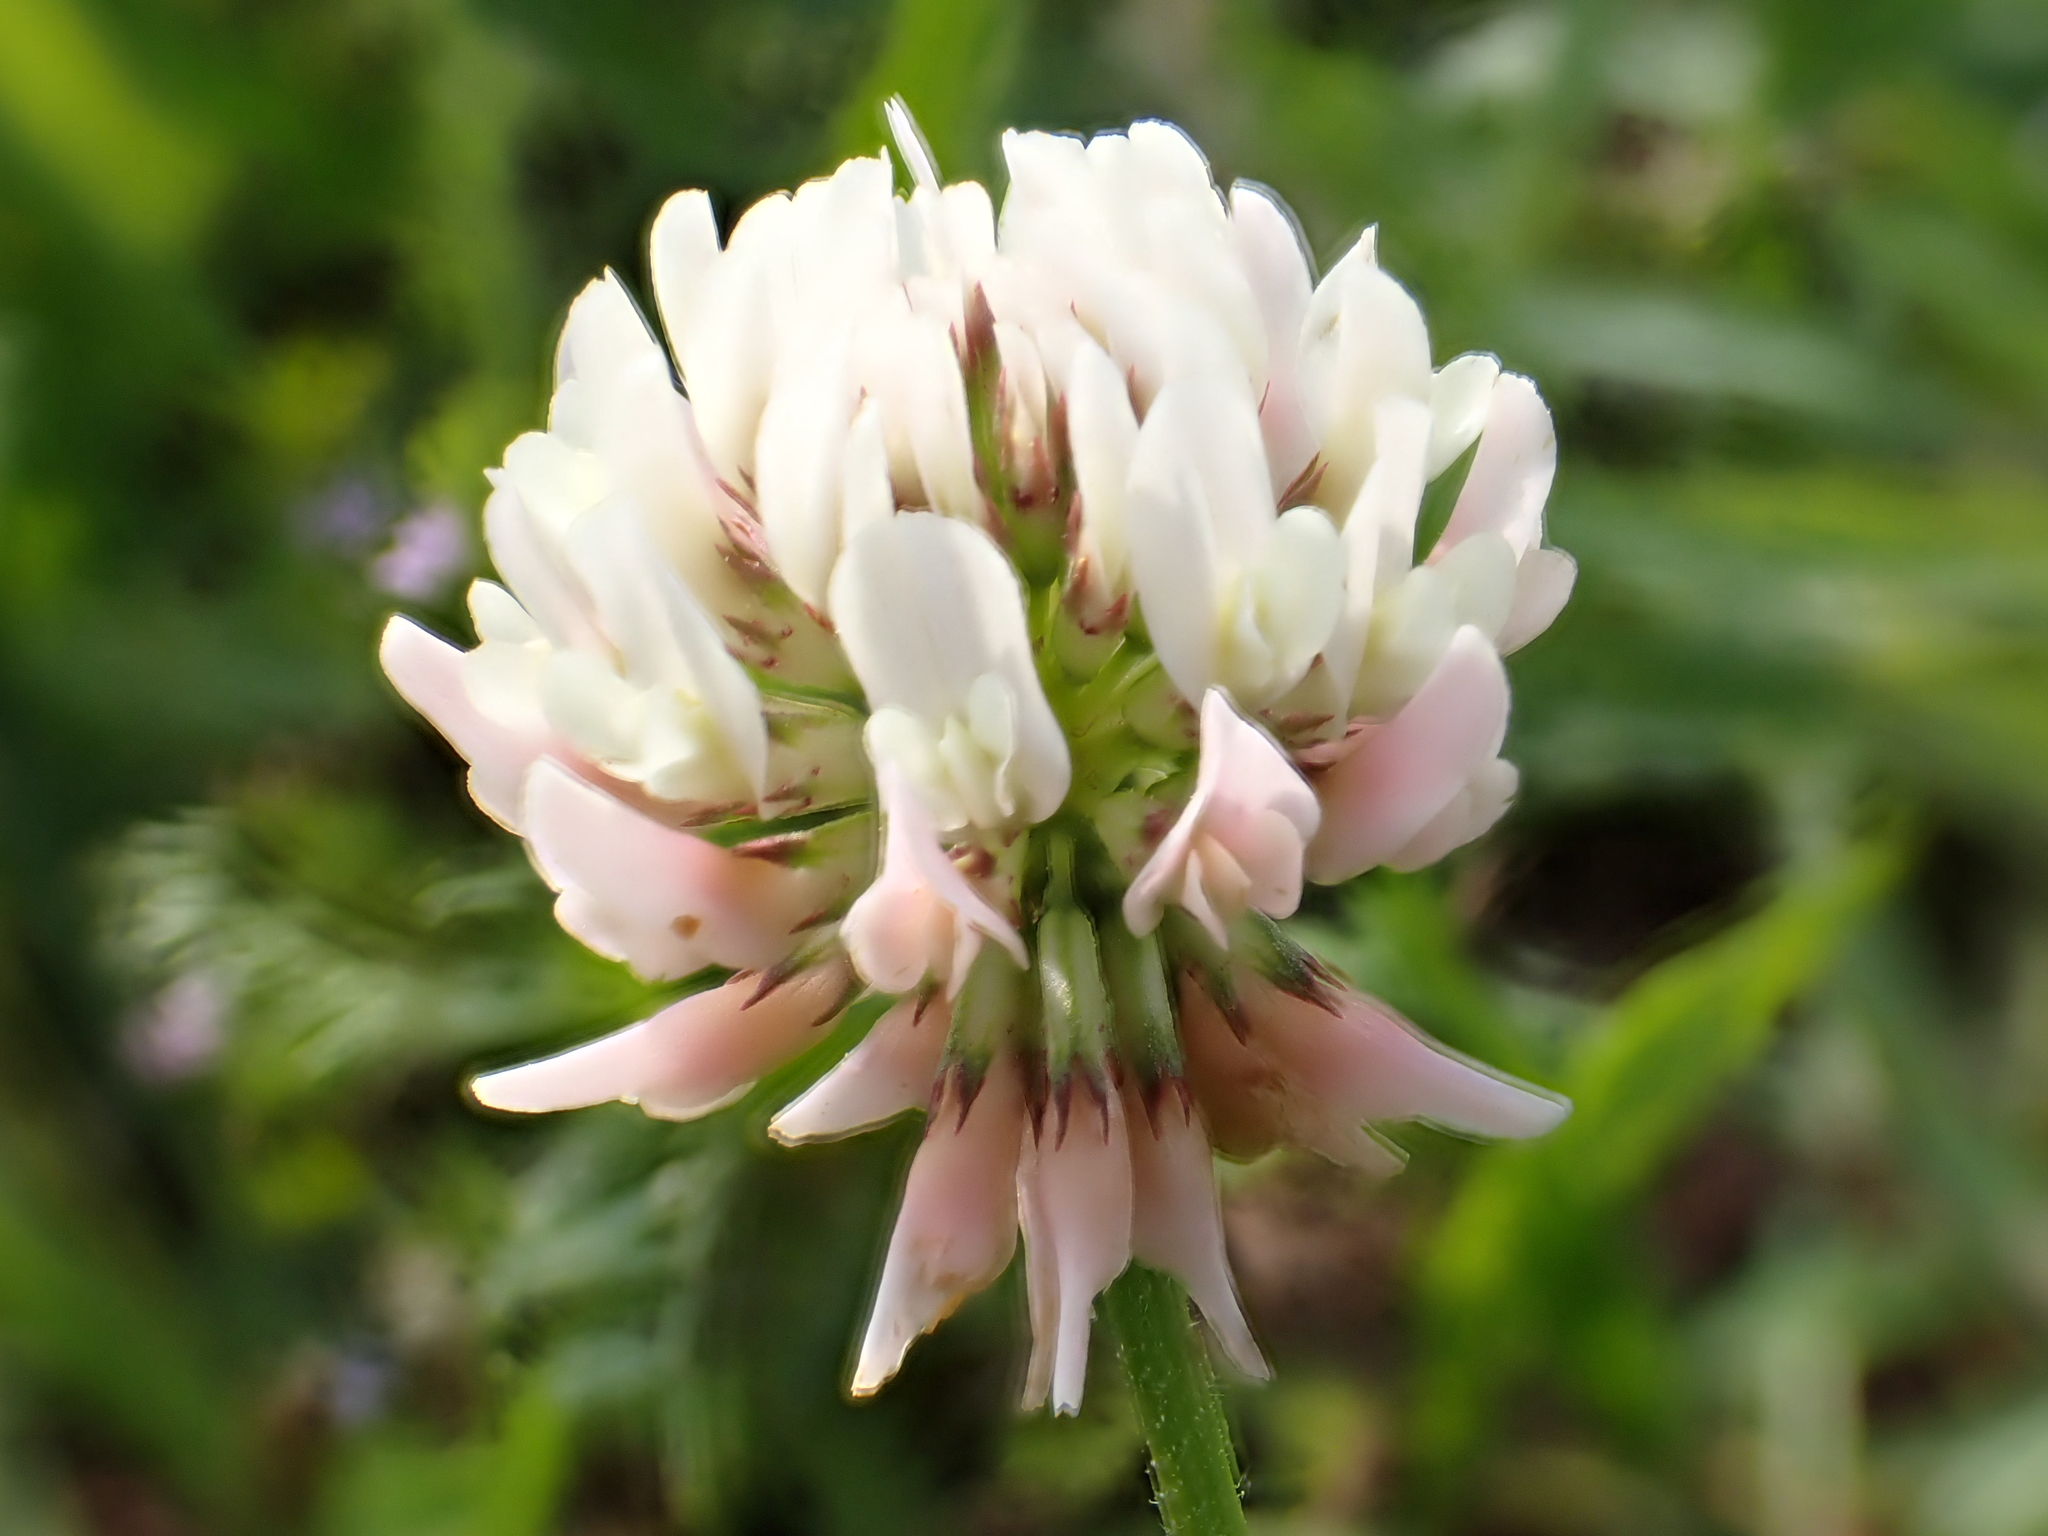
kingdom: Plantae
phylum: Tracheophyta
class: Magnoliopsida
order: Fabales
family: Fabaceae
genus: Trifolium
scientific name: Trifolium repens
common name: White clover
